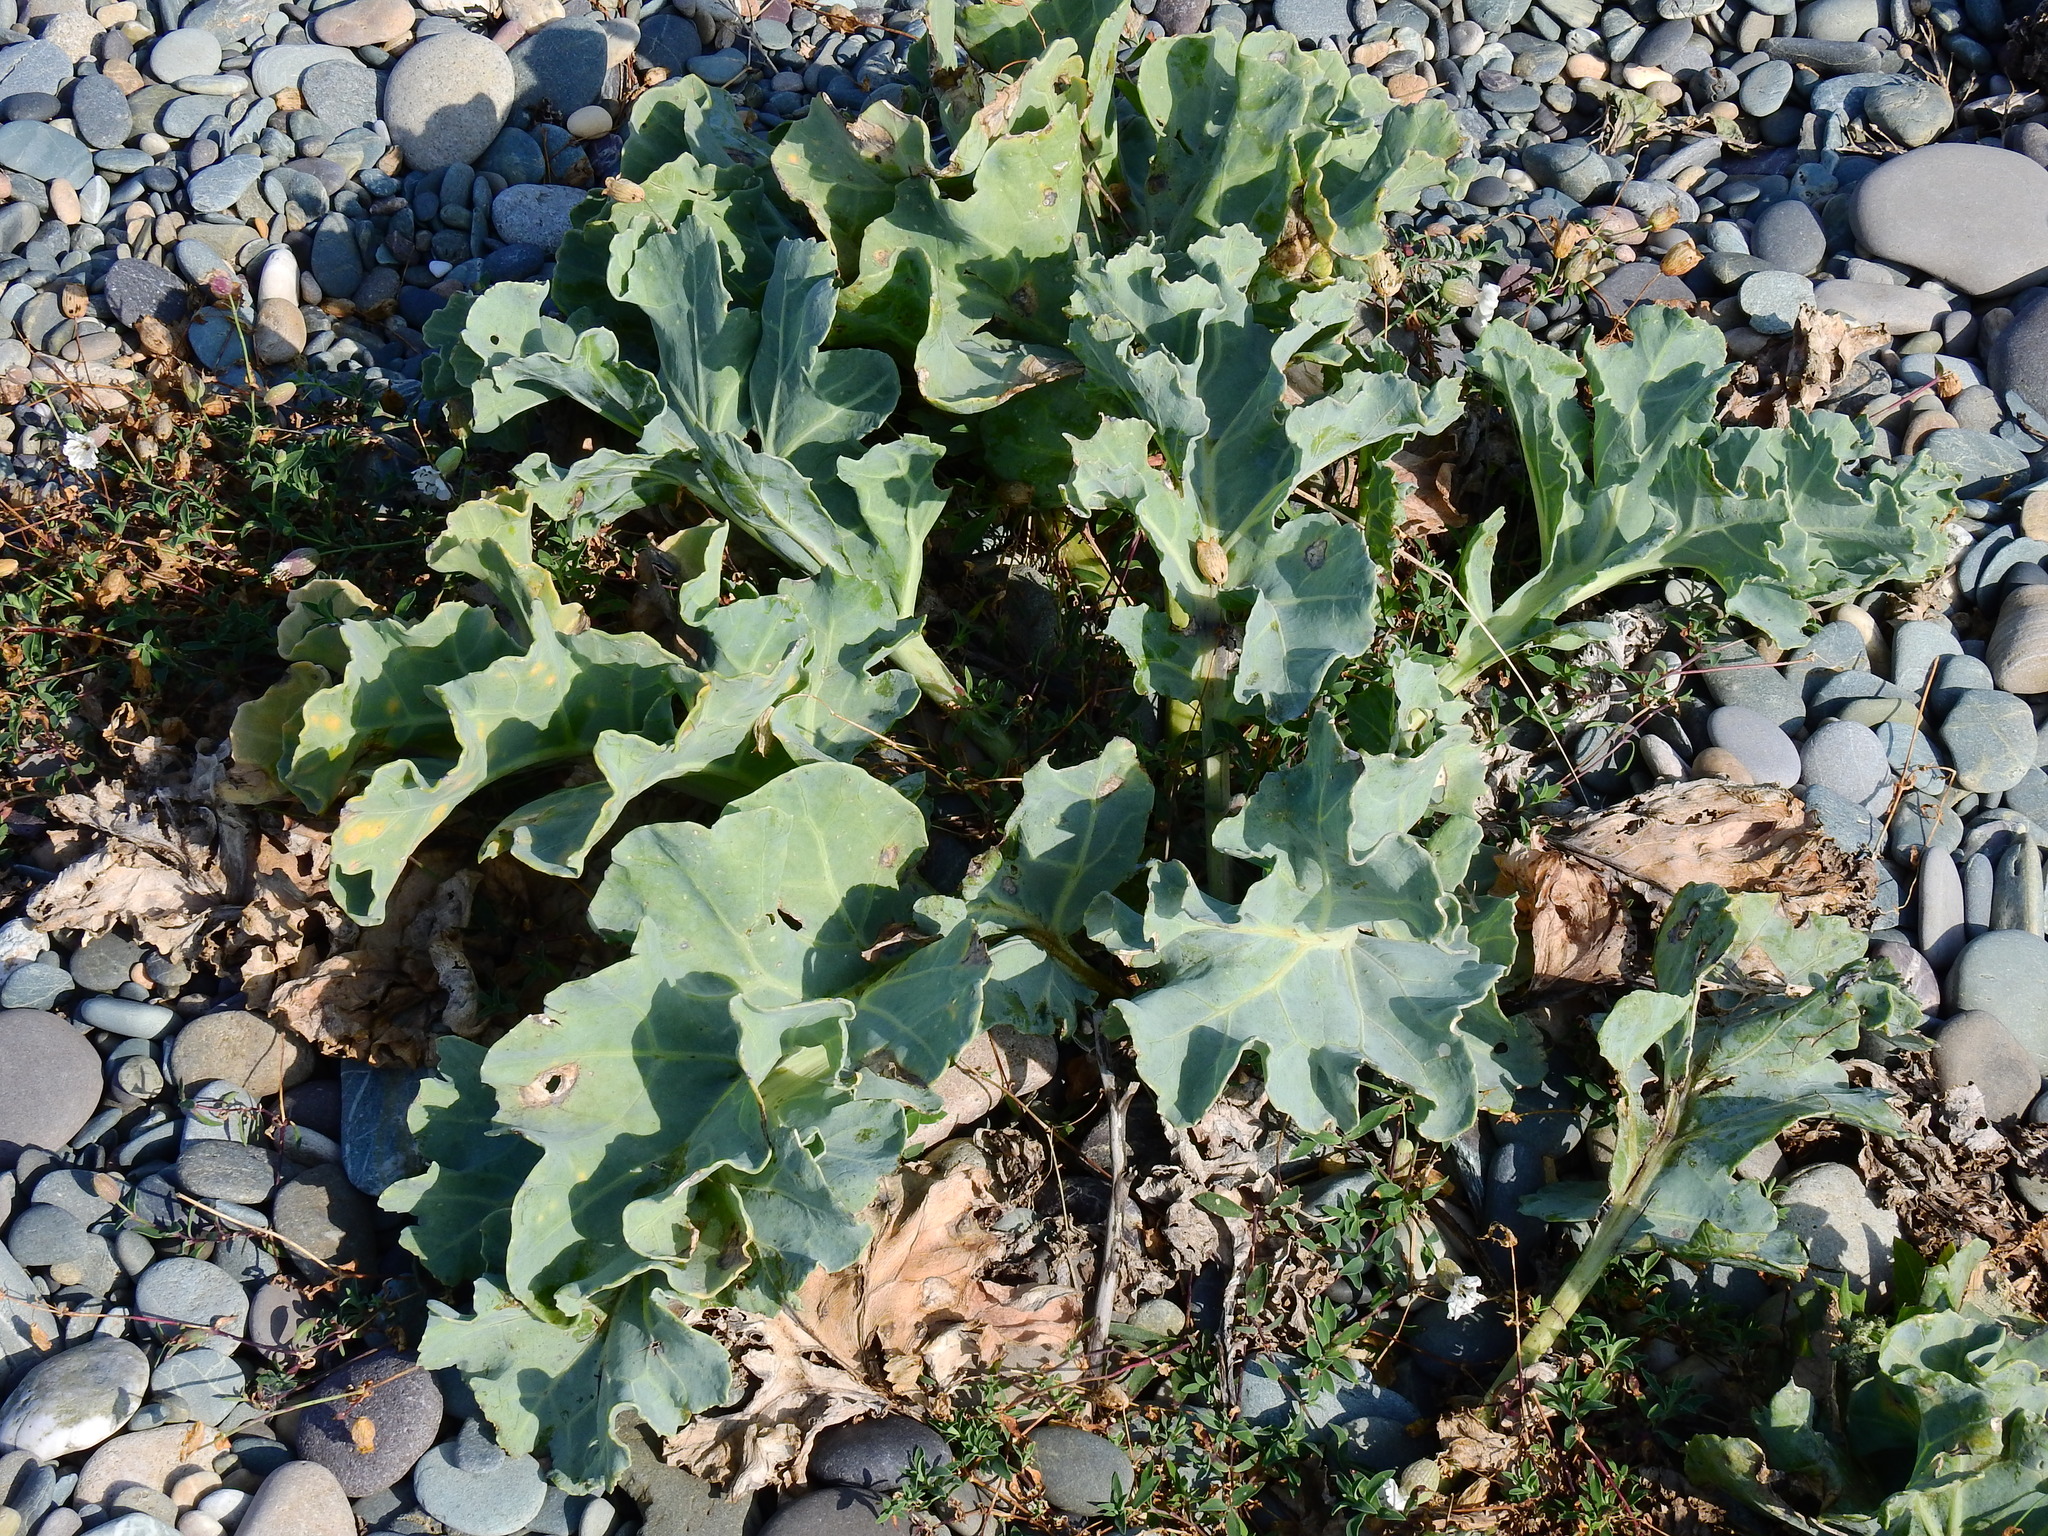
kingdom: Plantae
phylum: Tracheophyta
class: Magnoliopsida
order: Brassicales
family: Brassicaceae
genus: Crambe
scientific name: Crambe maritima
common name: Sea-kale
